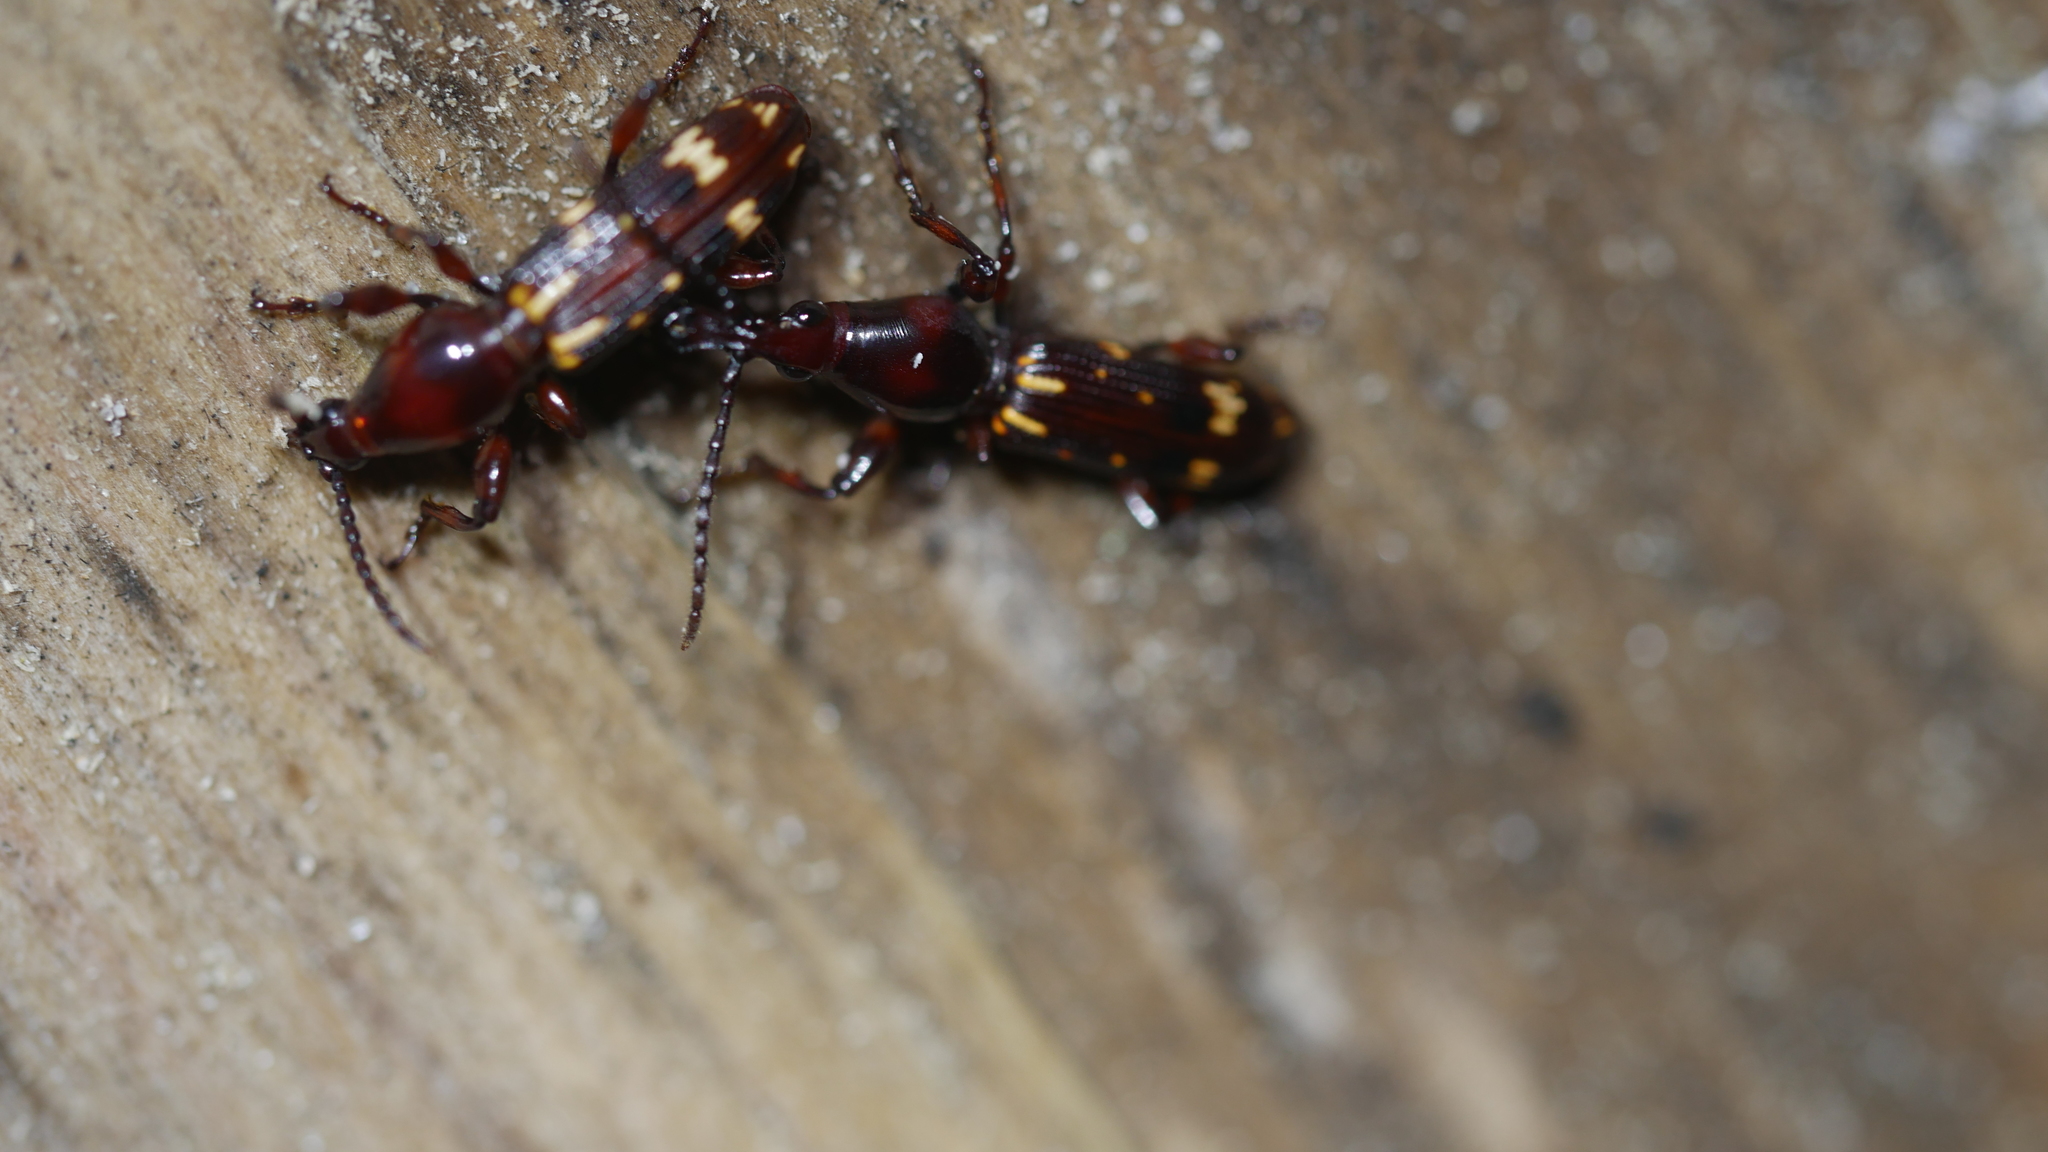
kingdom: Animalia
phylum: Arthropoda
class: Insecta
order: Coleoptera
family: Brentidae
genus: Arrenodes
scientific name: Arrenodes minutus
